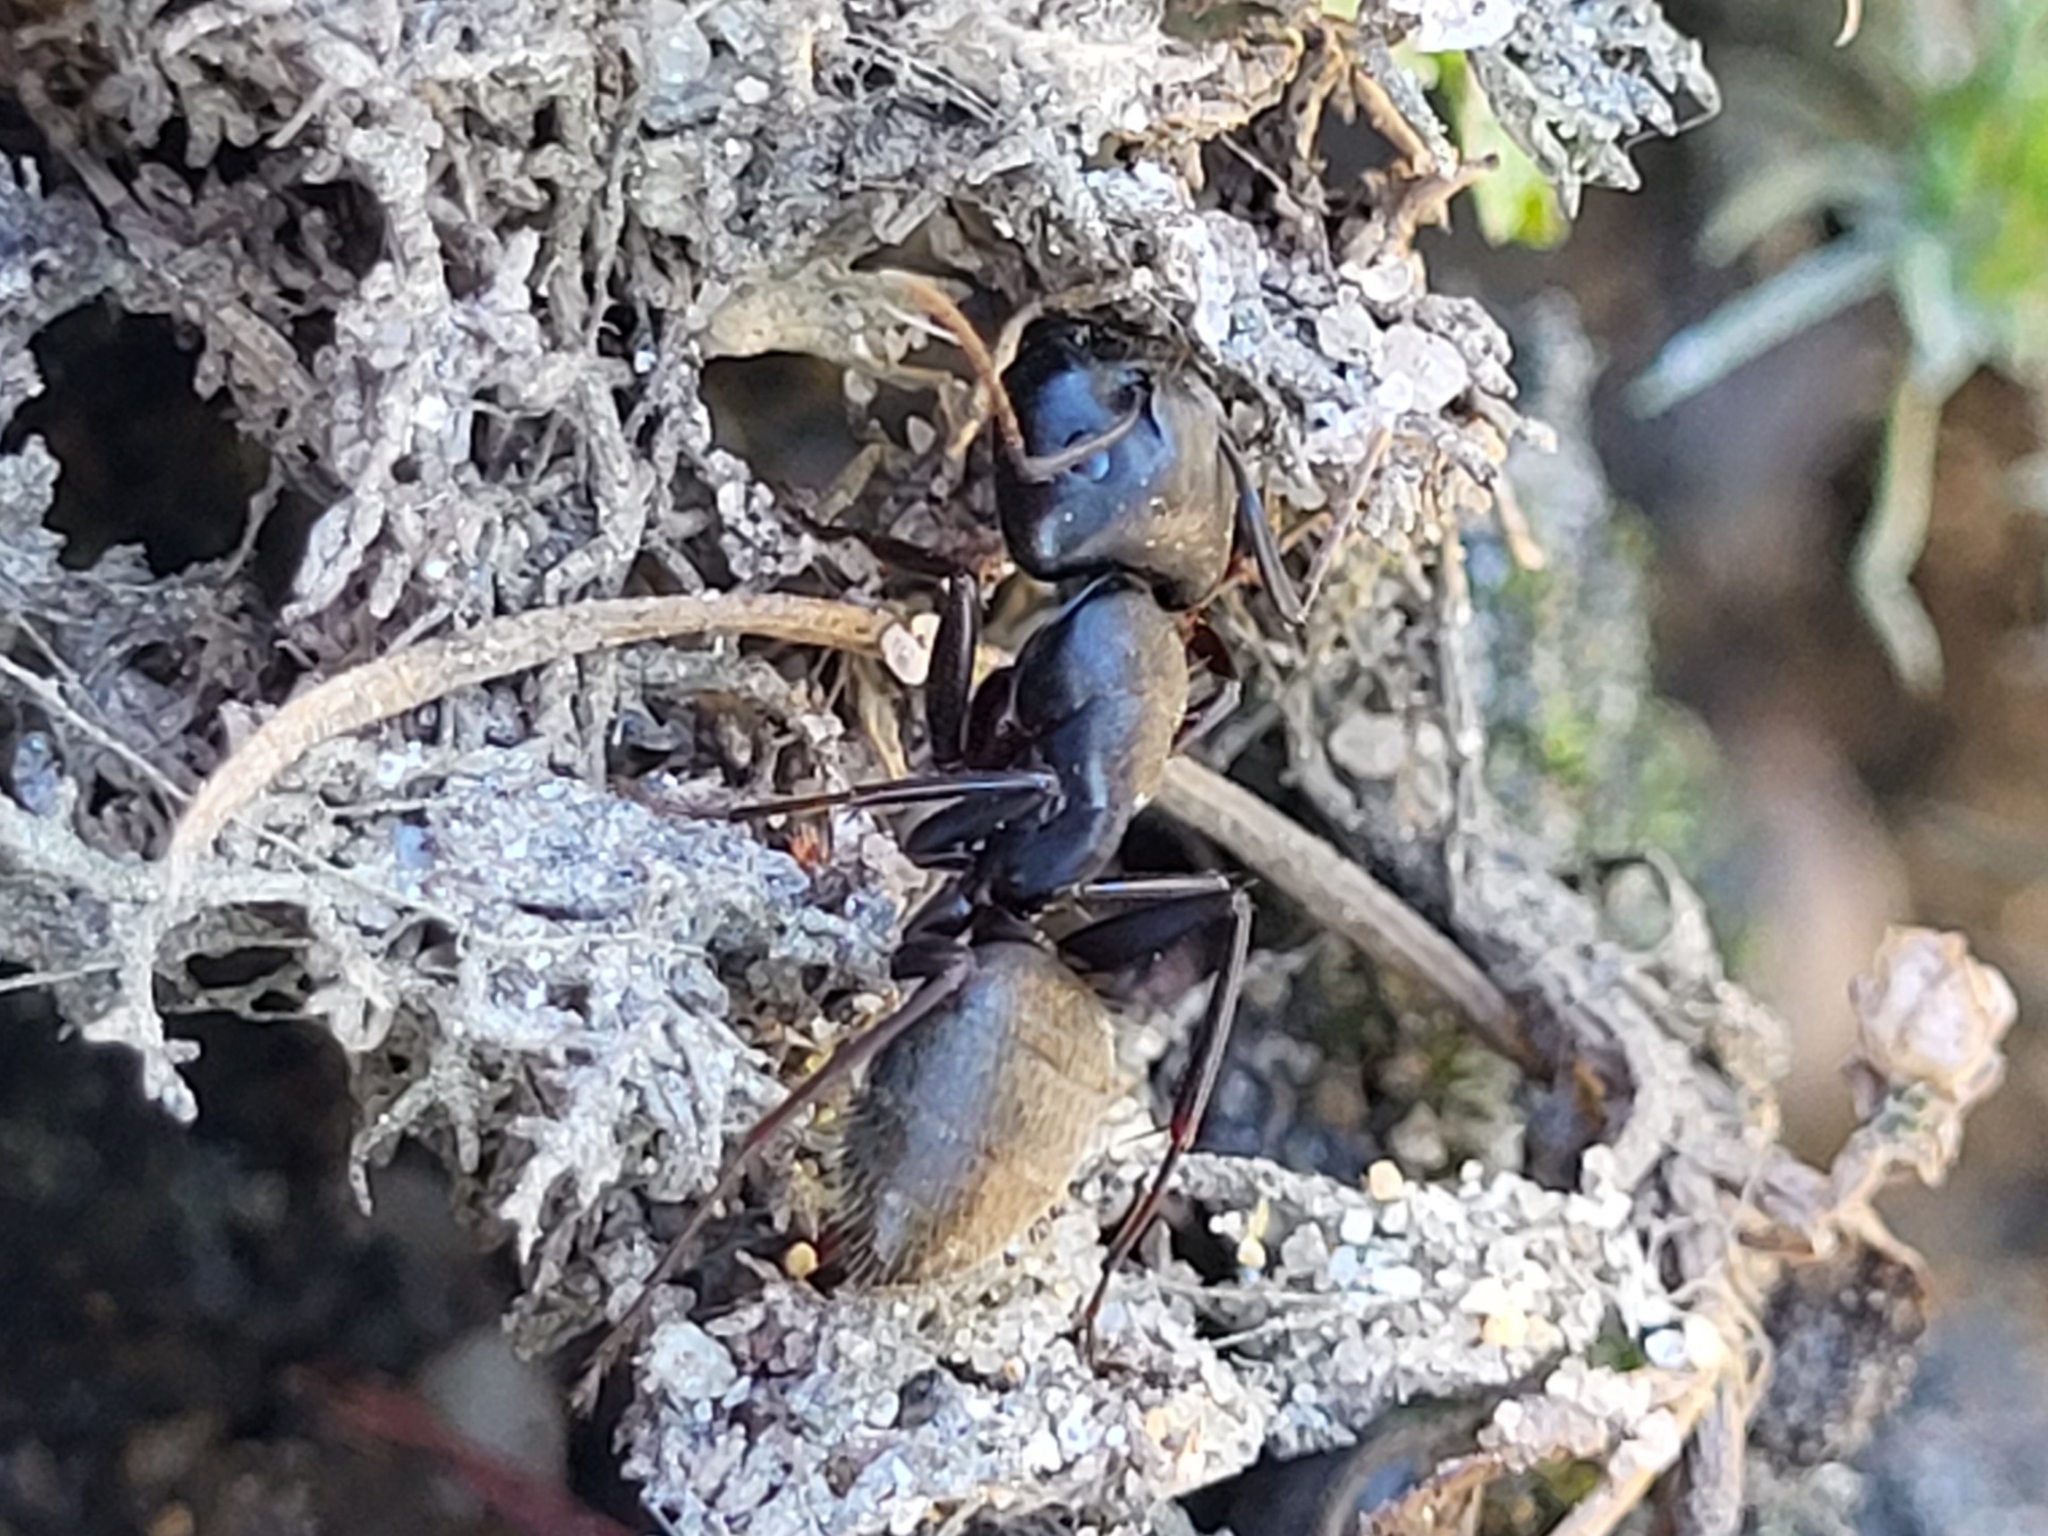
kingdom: Animalia
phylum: Arthropoda
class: Insecta
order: Hymenoptera
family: Formicidae
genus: Camponotus
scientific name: Camponotus pennsylvanicus
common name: Black carpenter ant
